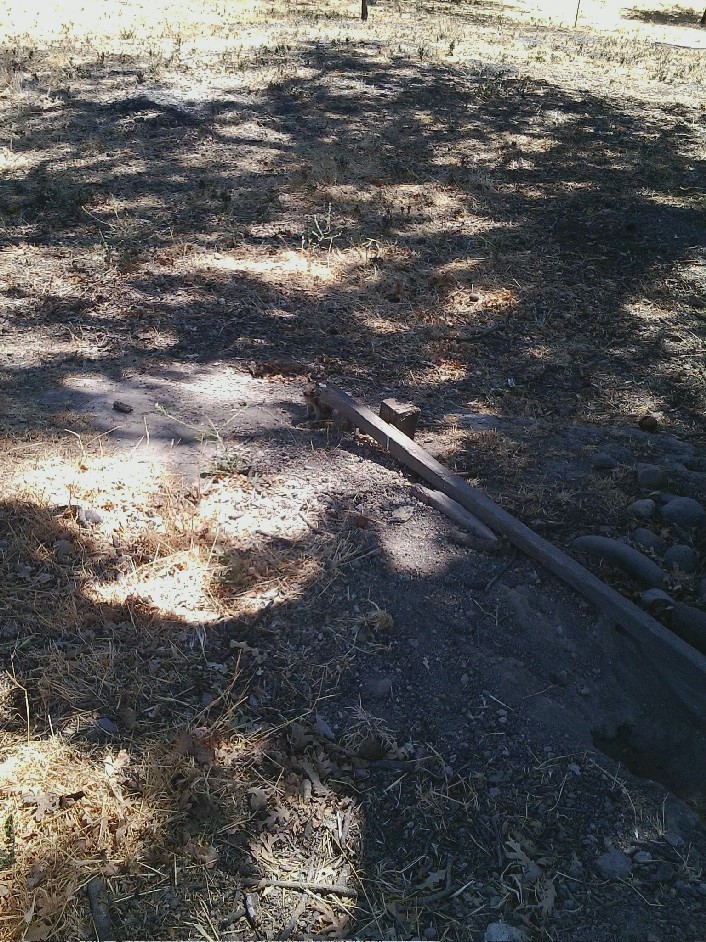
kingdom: Animalia
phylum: Chordata
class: Mammalia
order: Rodentia
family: Sciuridae
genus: Otospermophilus
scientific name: Otospermophilus beecheyi
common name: California ground squirrel
